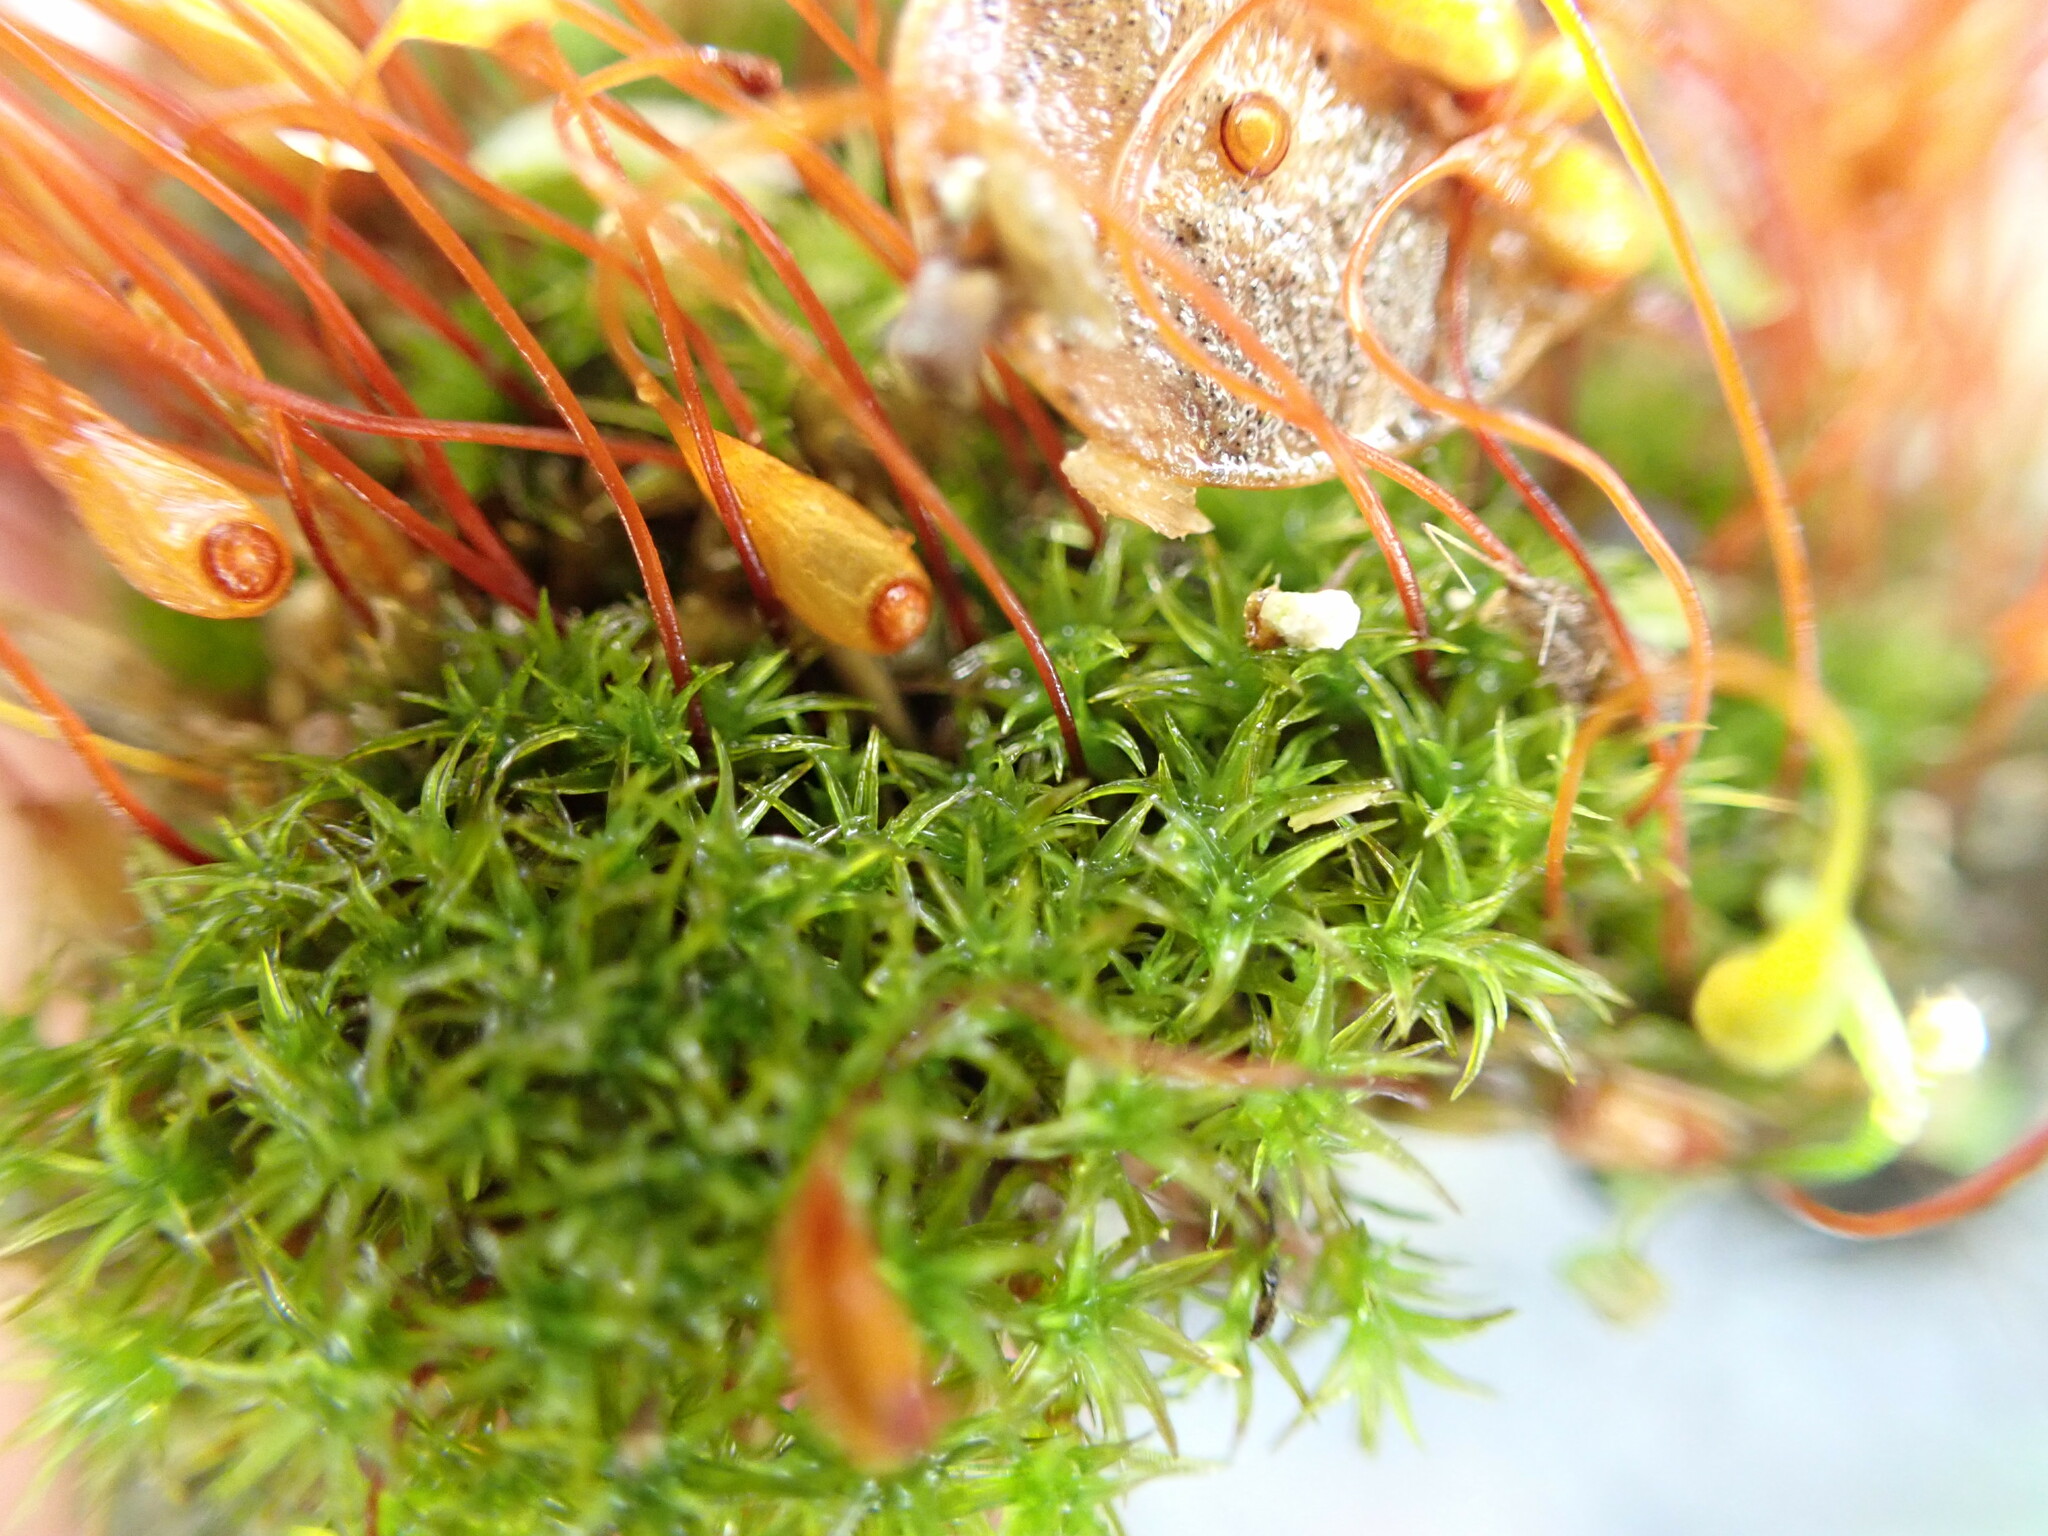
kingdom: Plantae
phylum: Bryophyta
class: Bryopsida
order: Funariales
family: Funariaceae
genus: Funaria
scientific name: Funaria hygrometrica
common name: Common cord moss
